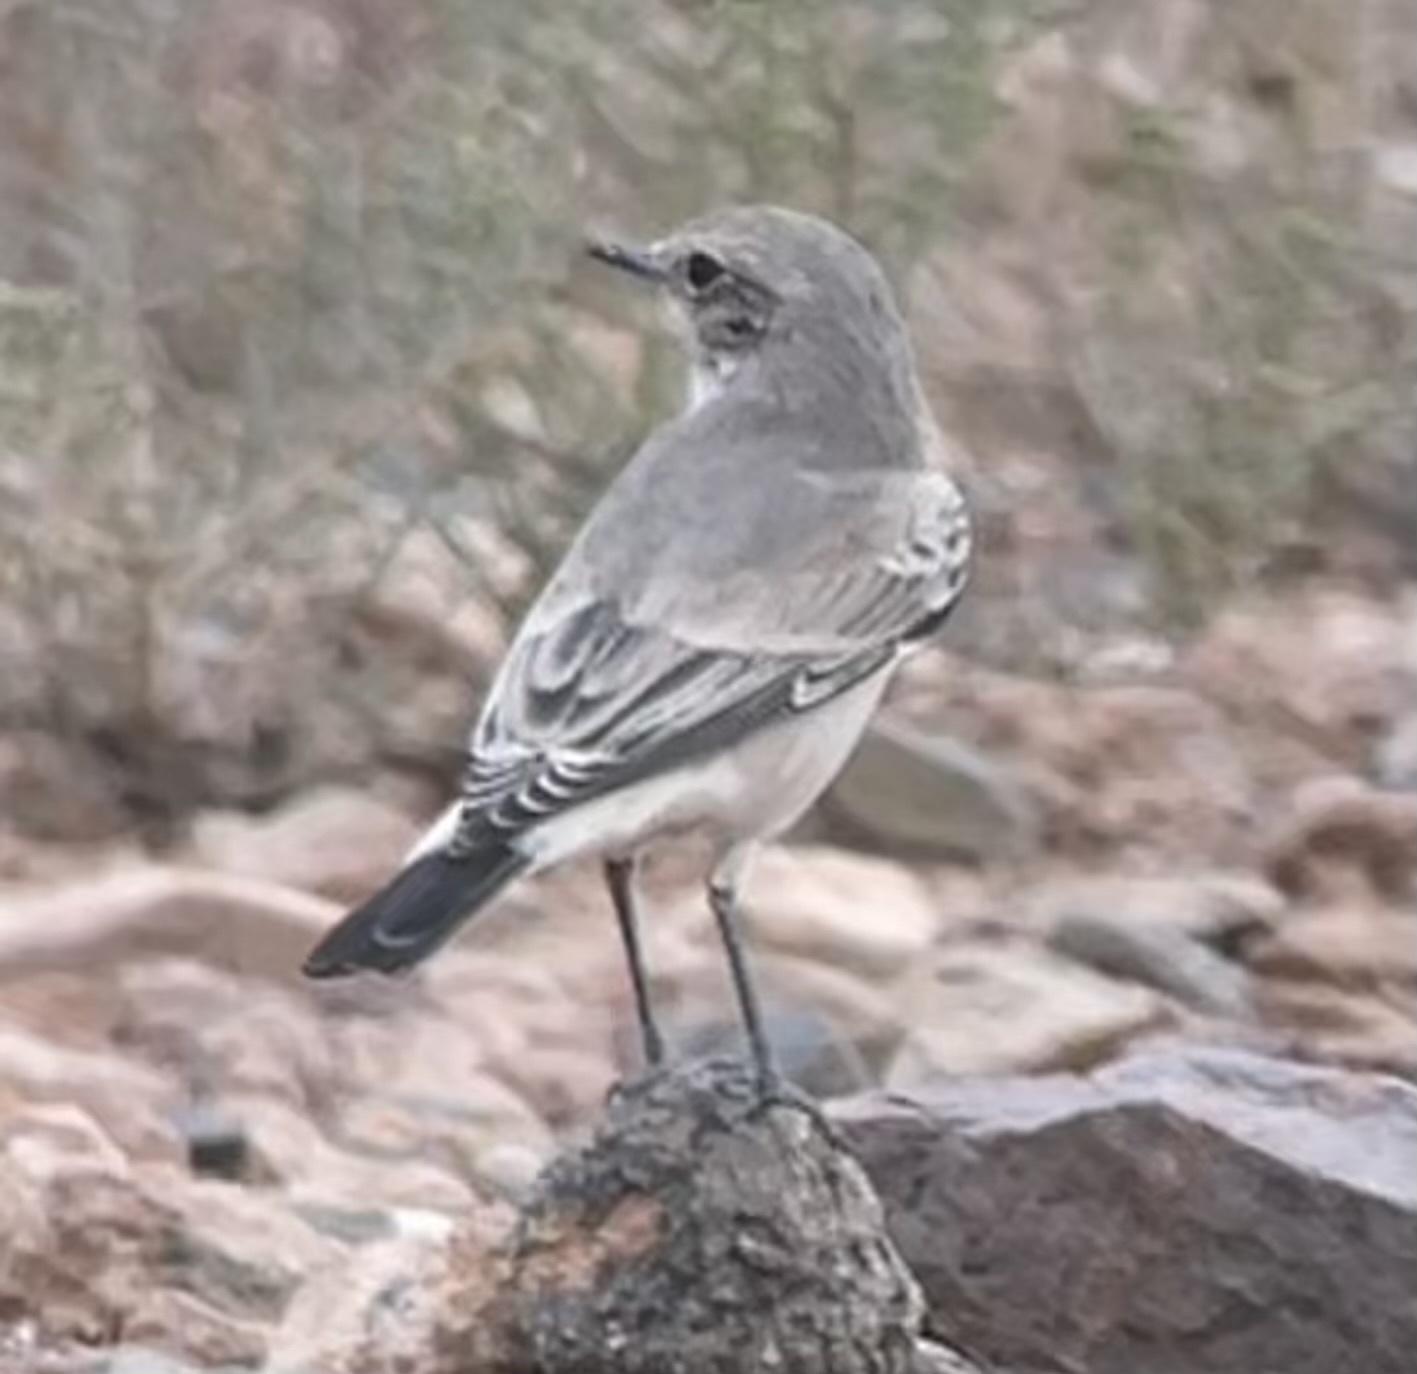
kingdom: Animalia
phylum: Chordata
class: Aves
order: Passeriformes
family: Muscicapidae
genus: Oenanthe
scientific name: Oenanthe lugens
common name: Mourning wheatear
